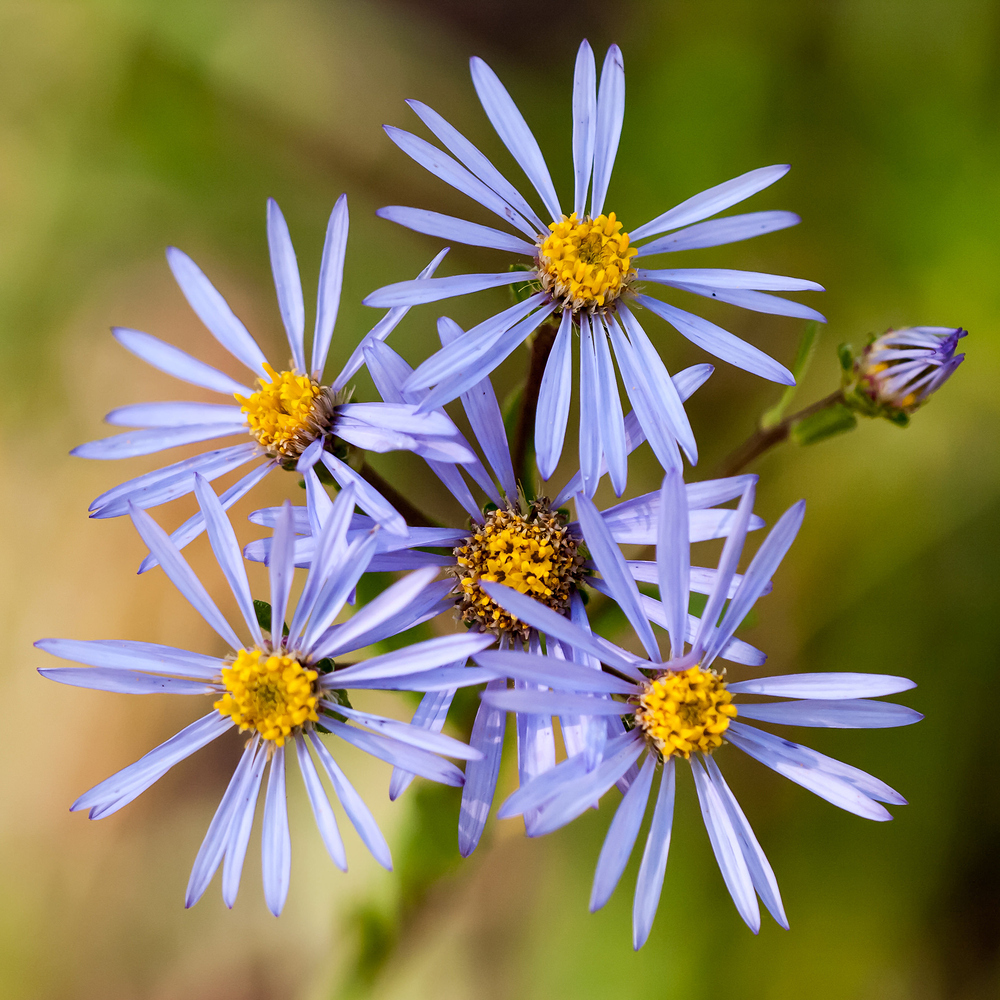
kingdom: Plantae
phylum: Tracheophyta
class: Magnoliopsida
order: Asterales
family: Asteraceae
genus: Aster
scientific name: Aster amellus
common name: European michaelmas daisy
